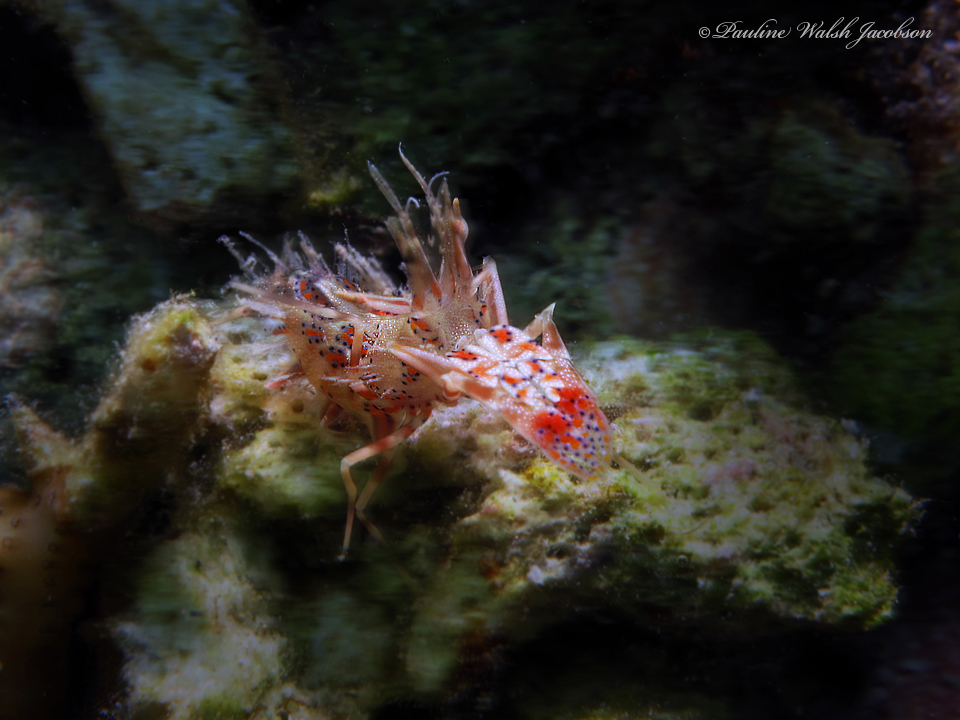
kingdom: Animalia
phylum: Arthropoda
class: Malacostraca
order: Decapoda
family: Palaemonidae
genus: Phyllognathia
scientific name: Phyllognathia ceratophthalma
